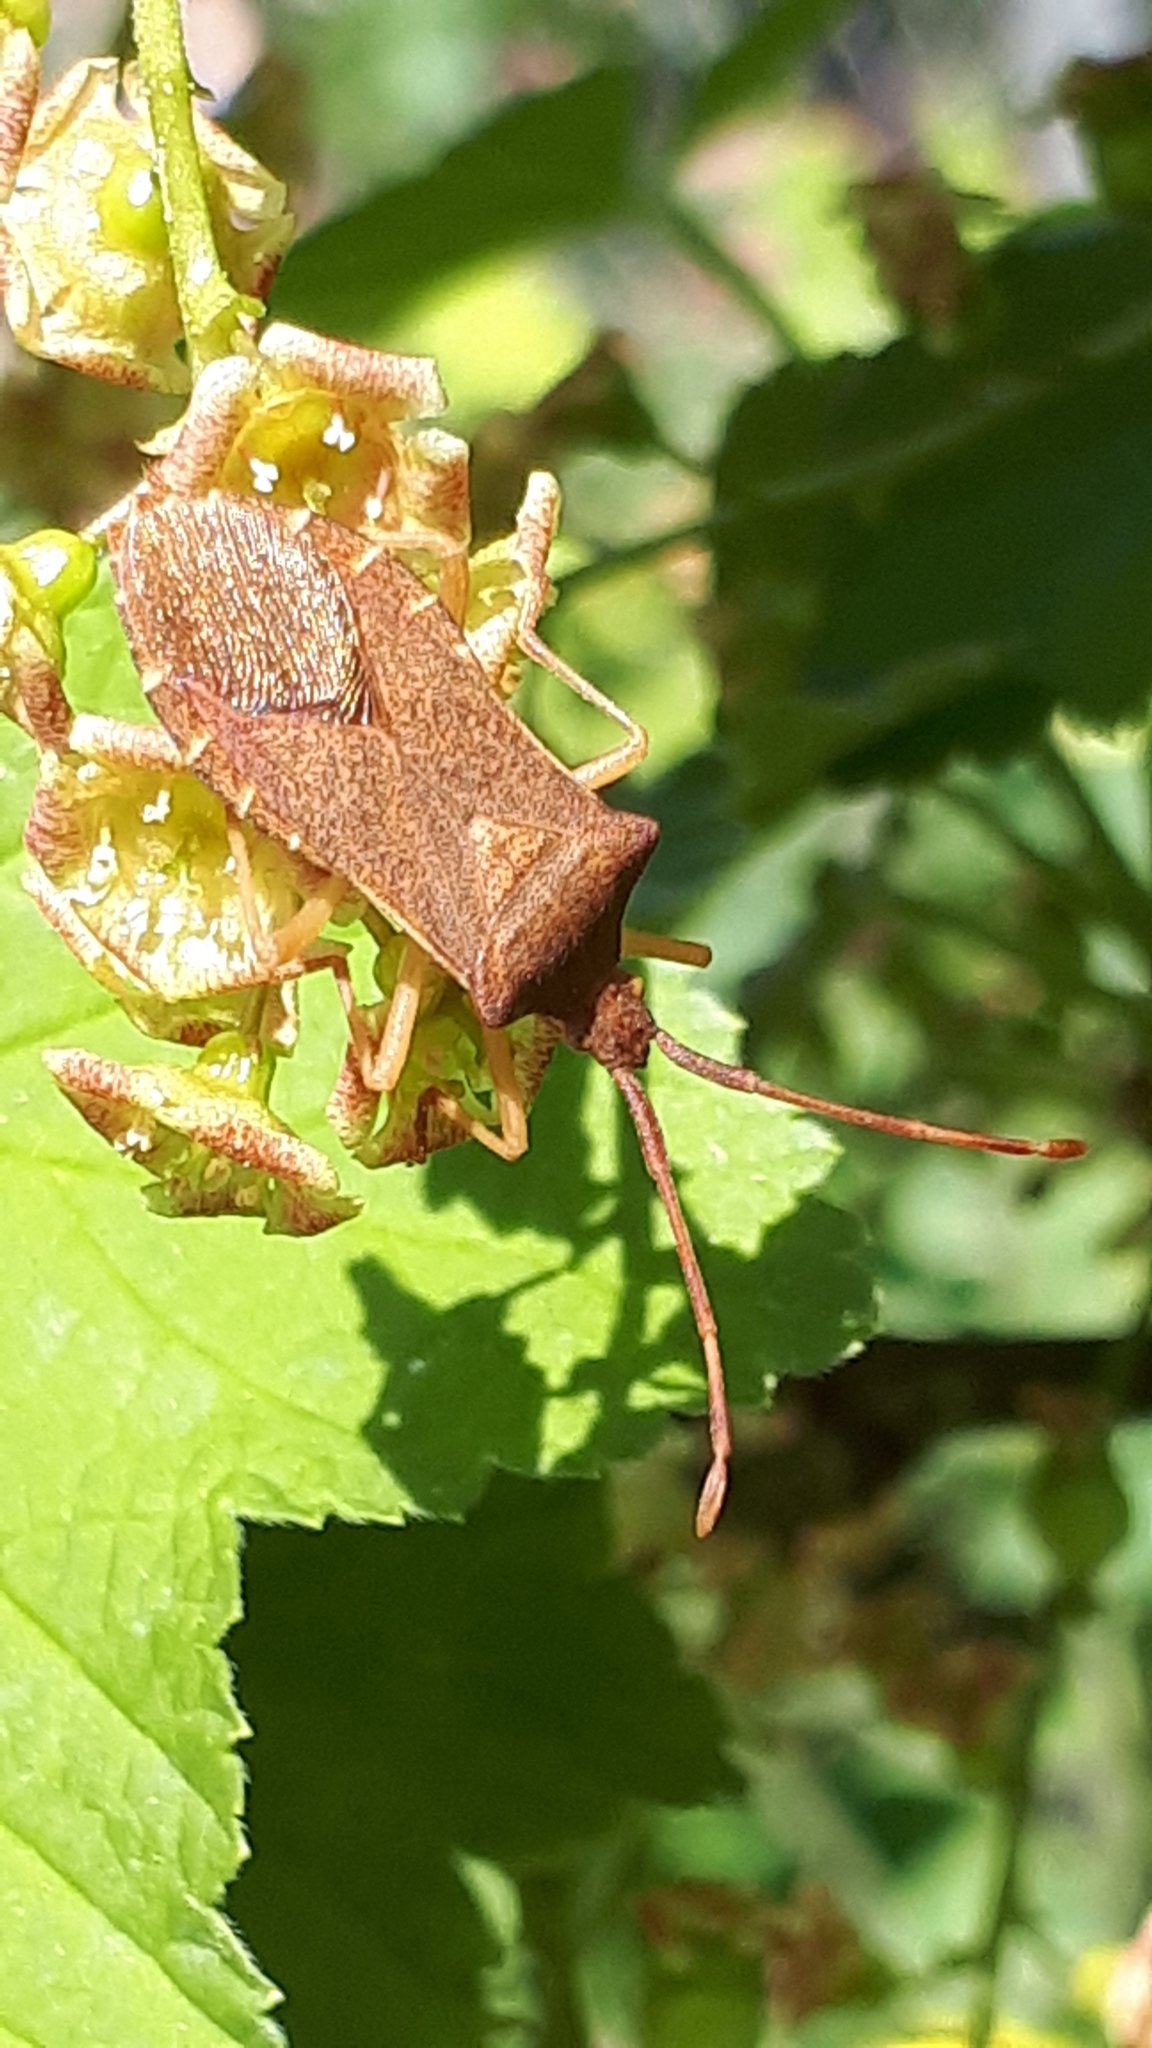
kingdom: Animalia
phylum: Arthropoda
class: Insecta
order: Hemiptera
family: Coreidae
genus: Gonocerus
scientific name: Gonocerus acuteangulatus
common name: Box bug
